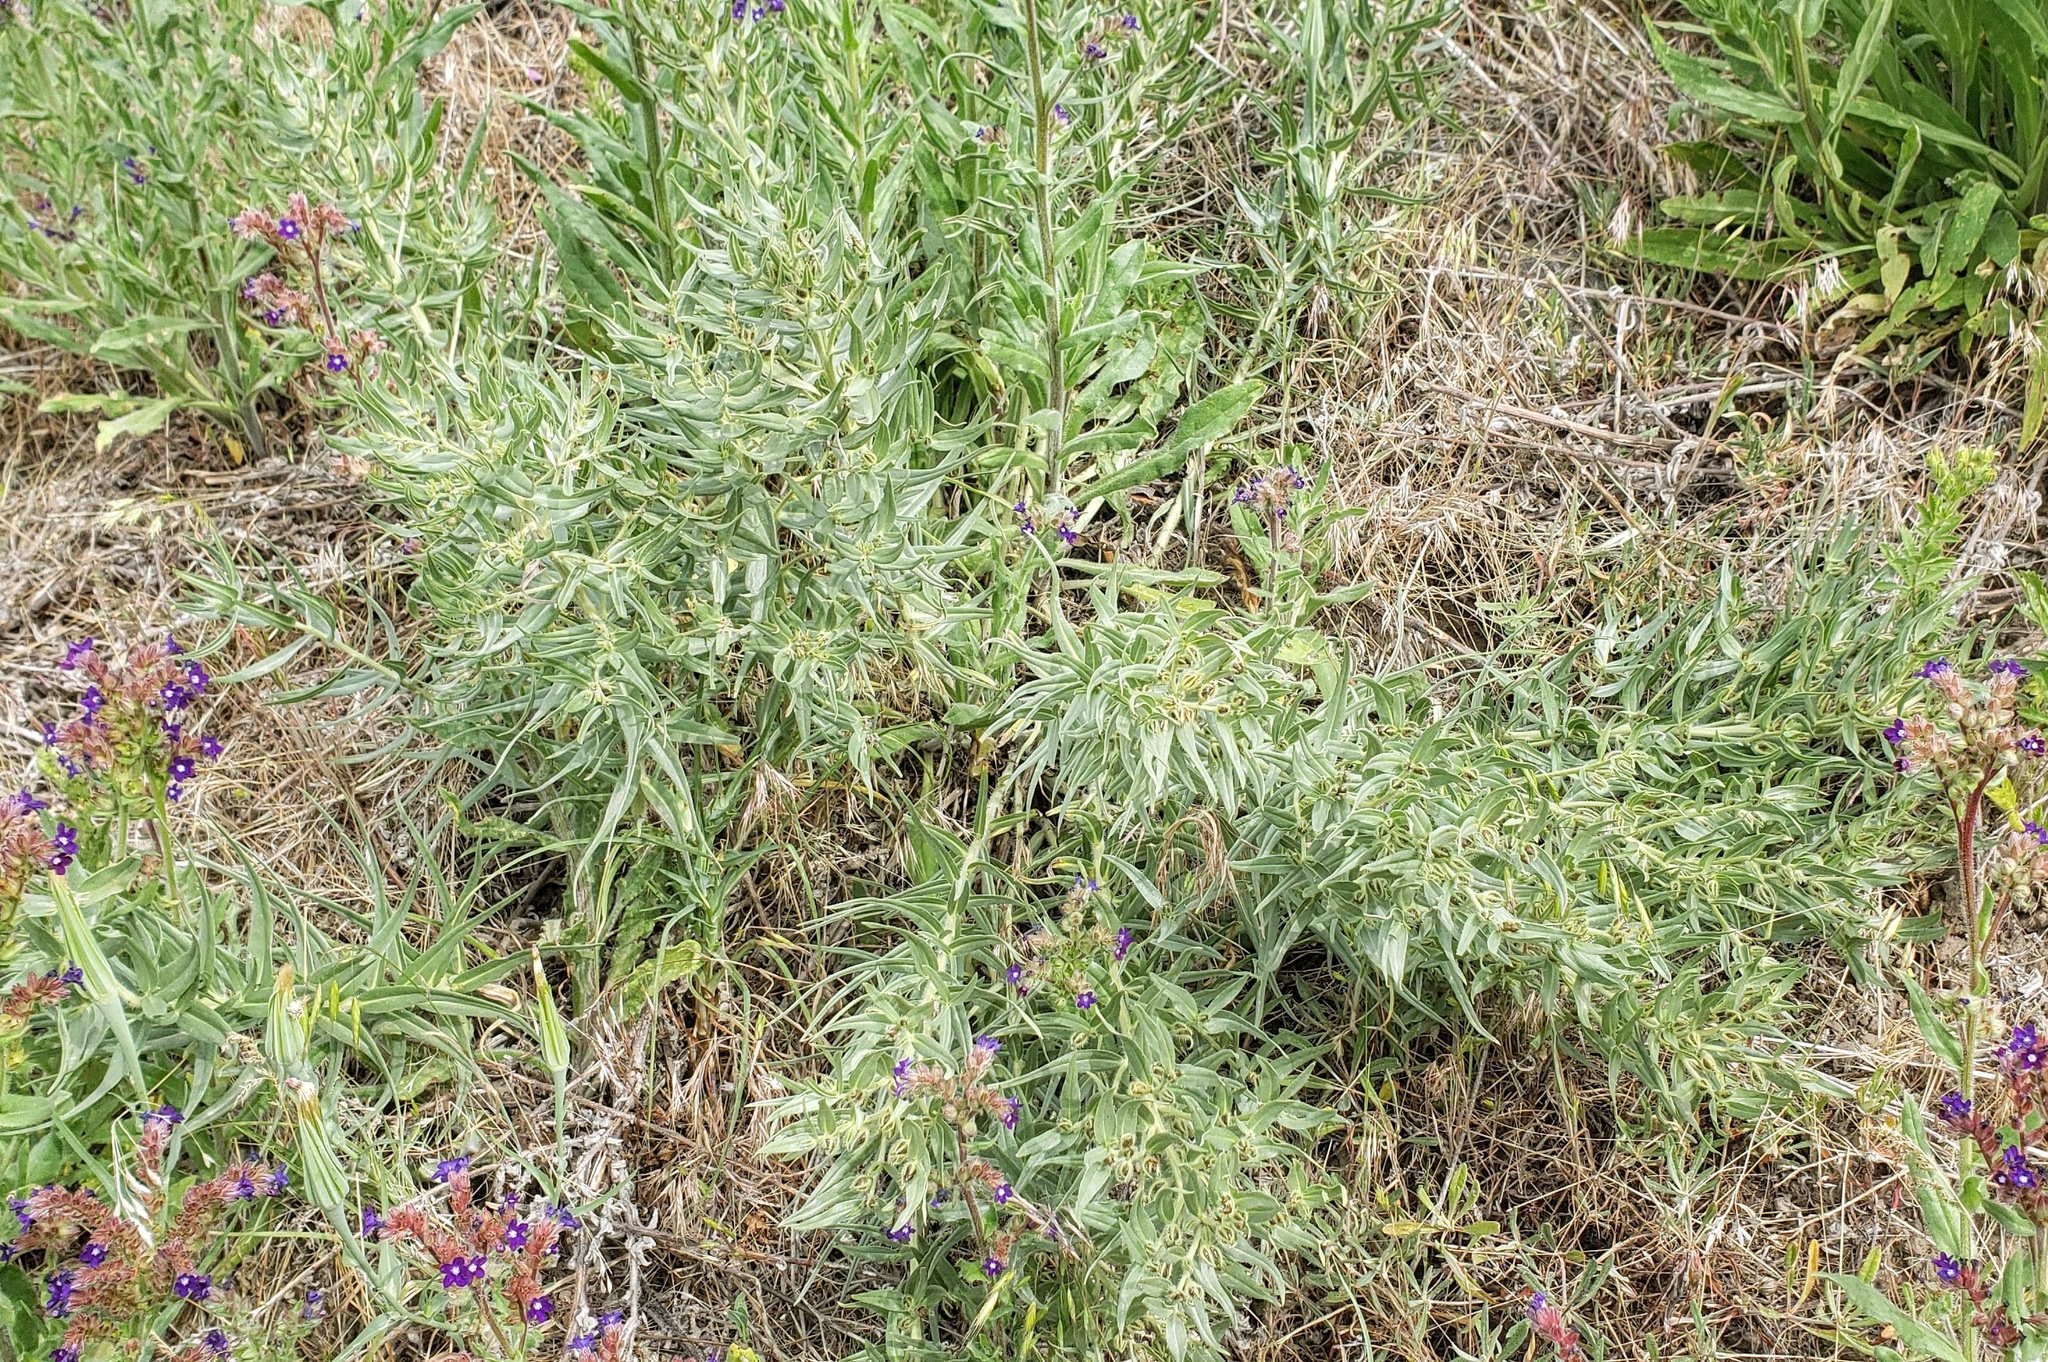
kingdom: Plantae
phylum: Tracheophyta
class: Magnoliopsida
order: Boraginales
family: Boraginaceae
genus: Lithospermum
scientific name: Lithospermum ruderale
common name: Western gromwell
